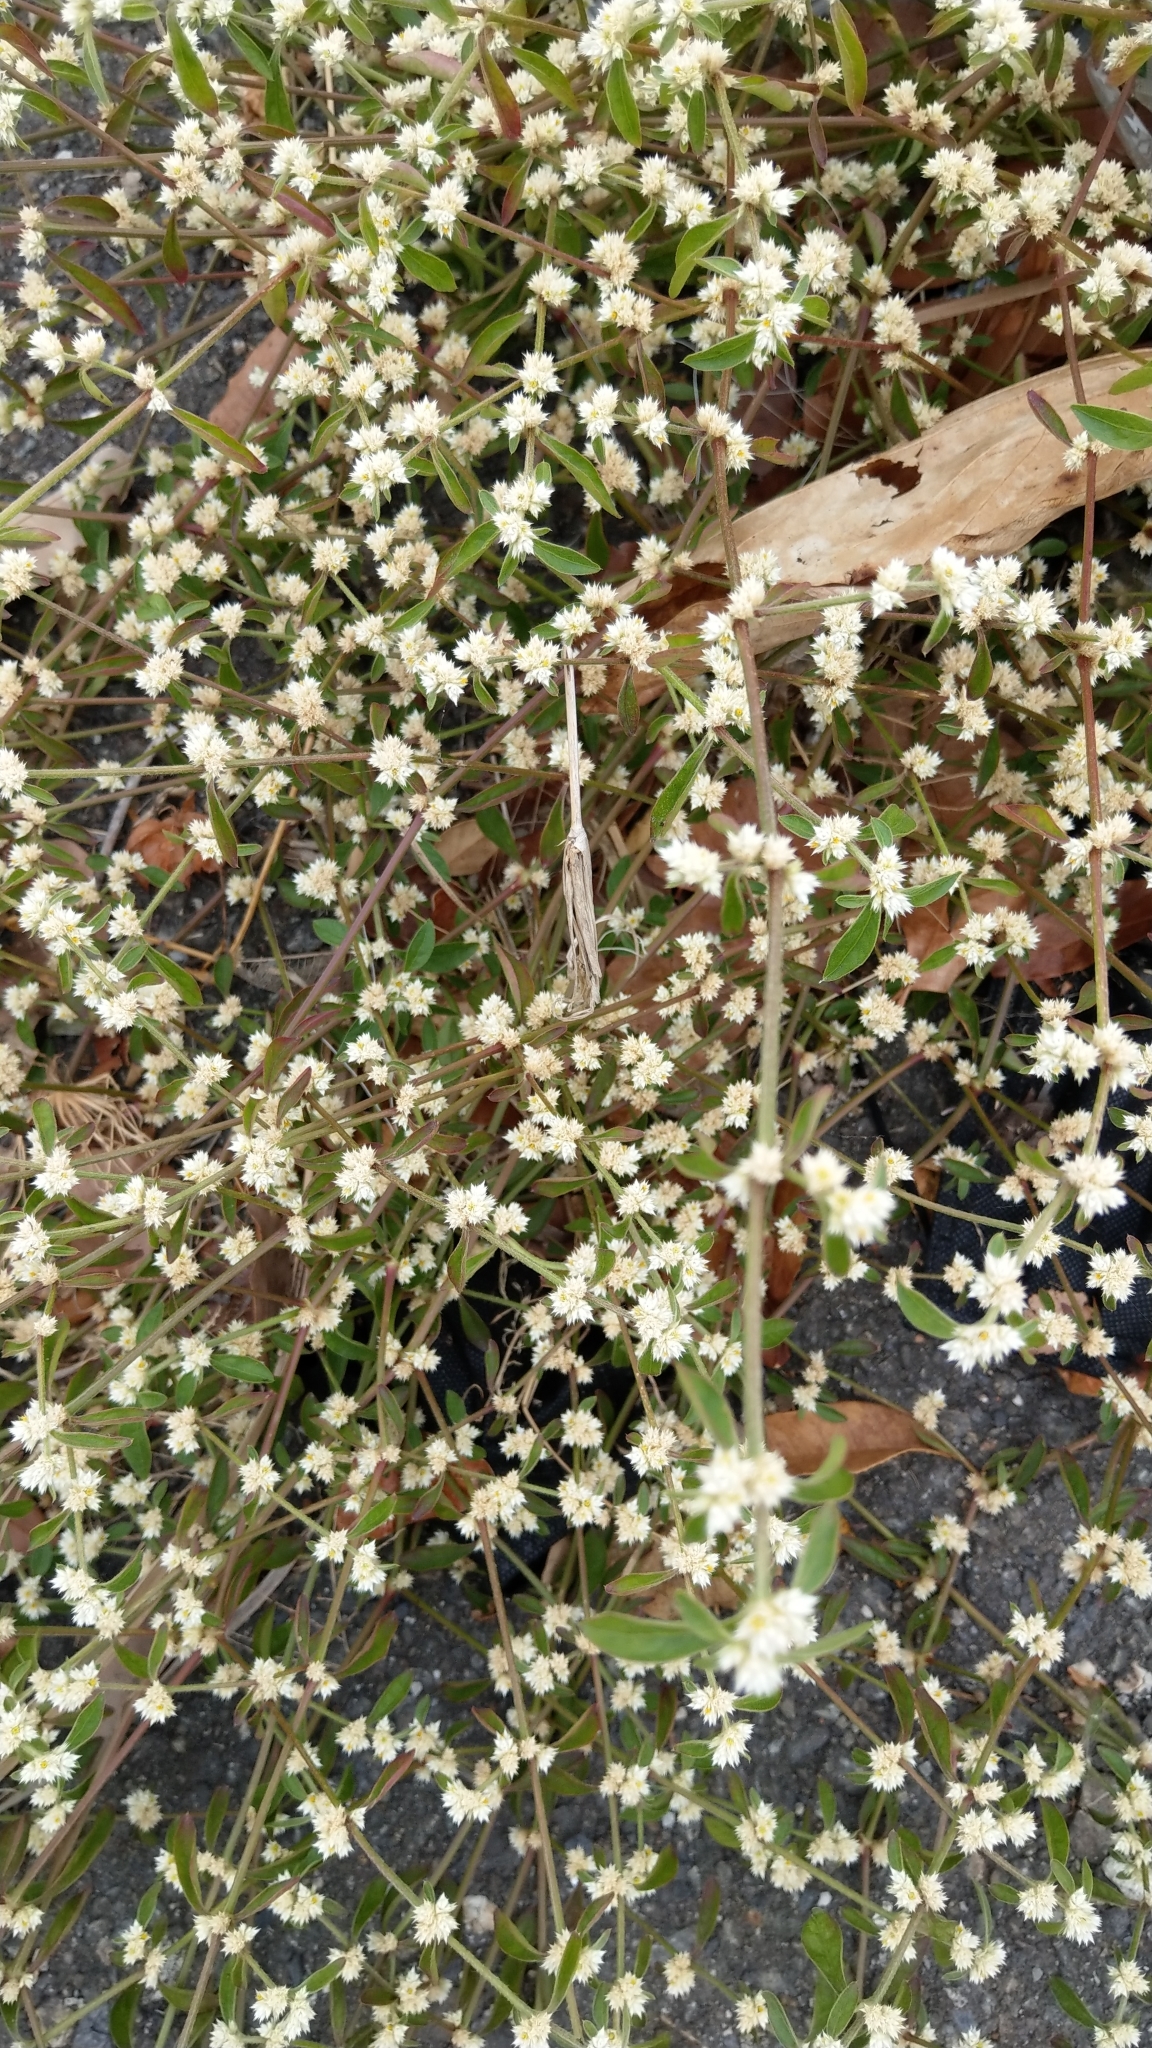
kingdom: Plantae
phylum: Tracheophyta
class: Magnoliopsida
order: Caryophyllales
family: Amaranthaceae
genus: Alternanthera
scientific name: Alternanthera bettzickiana
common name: Calico-plant
